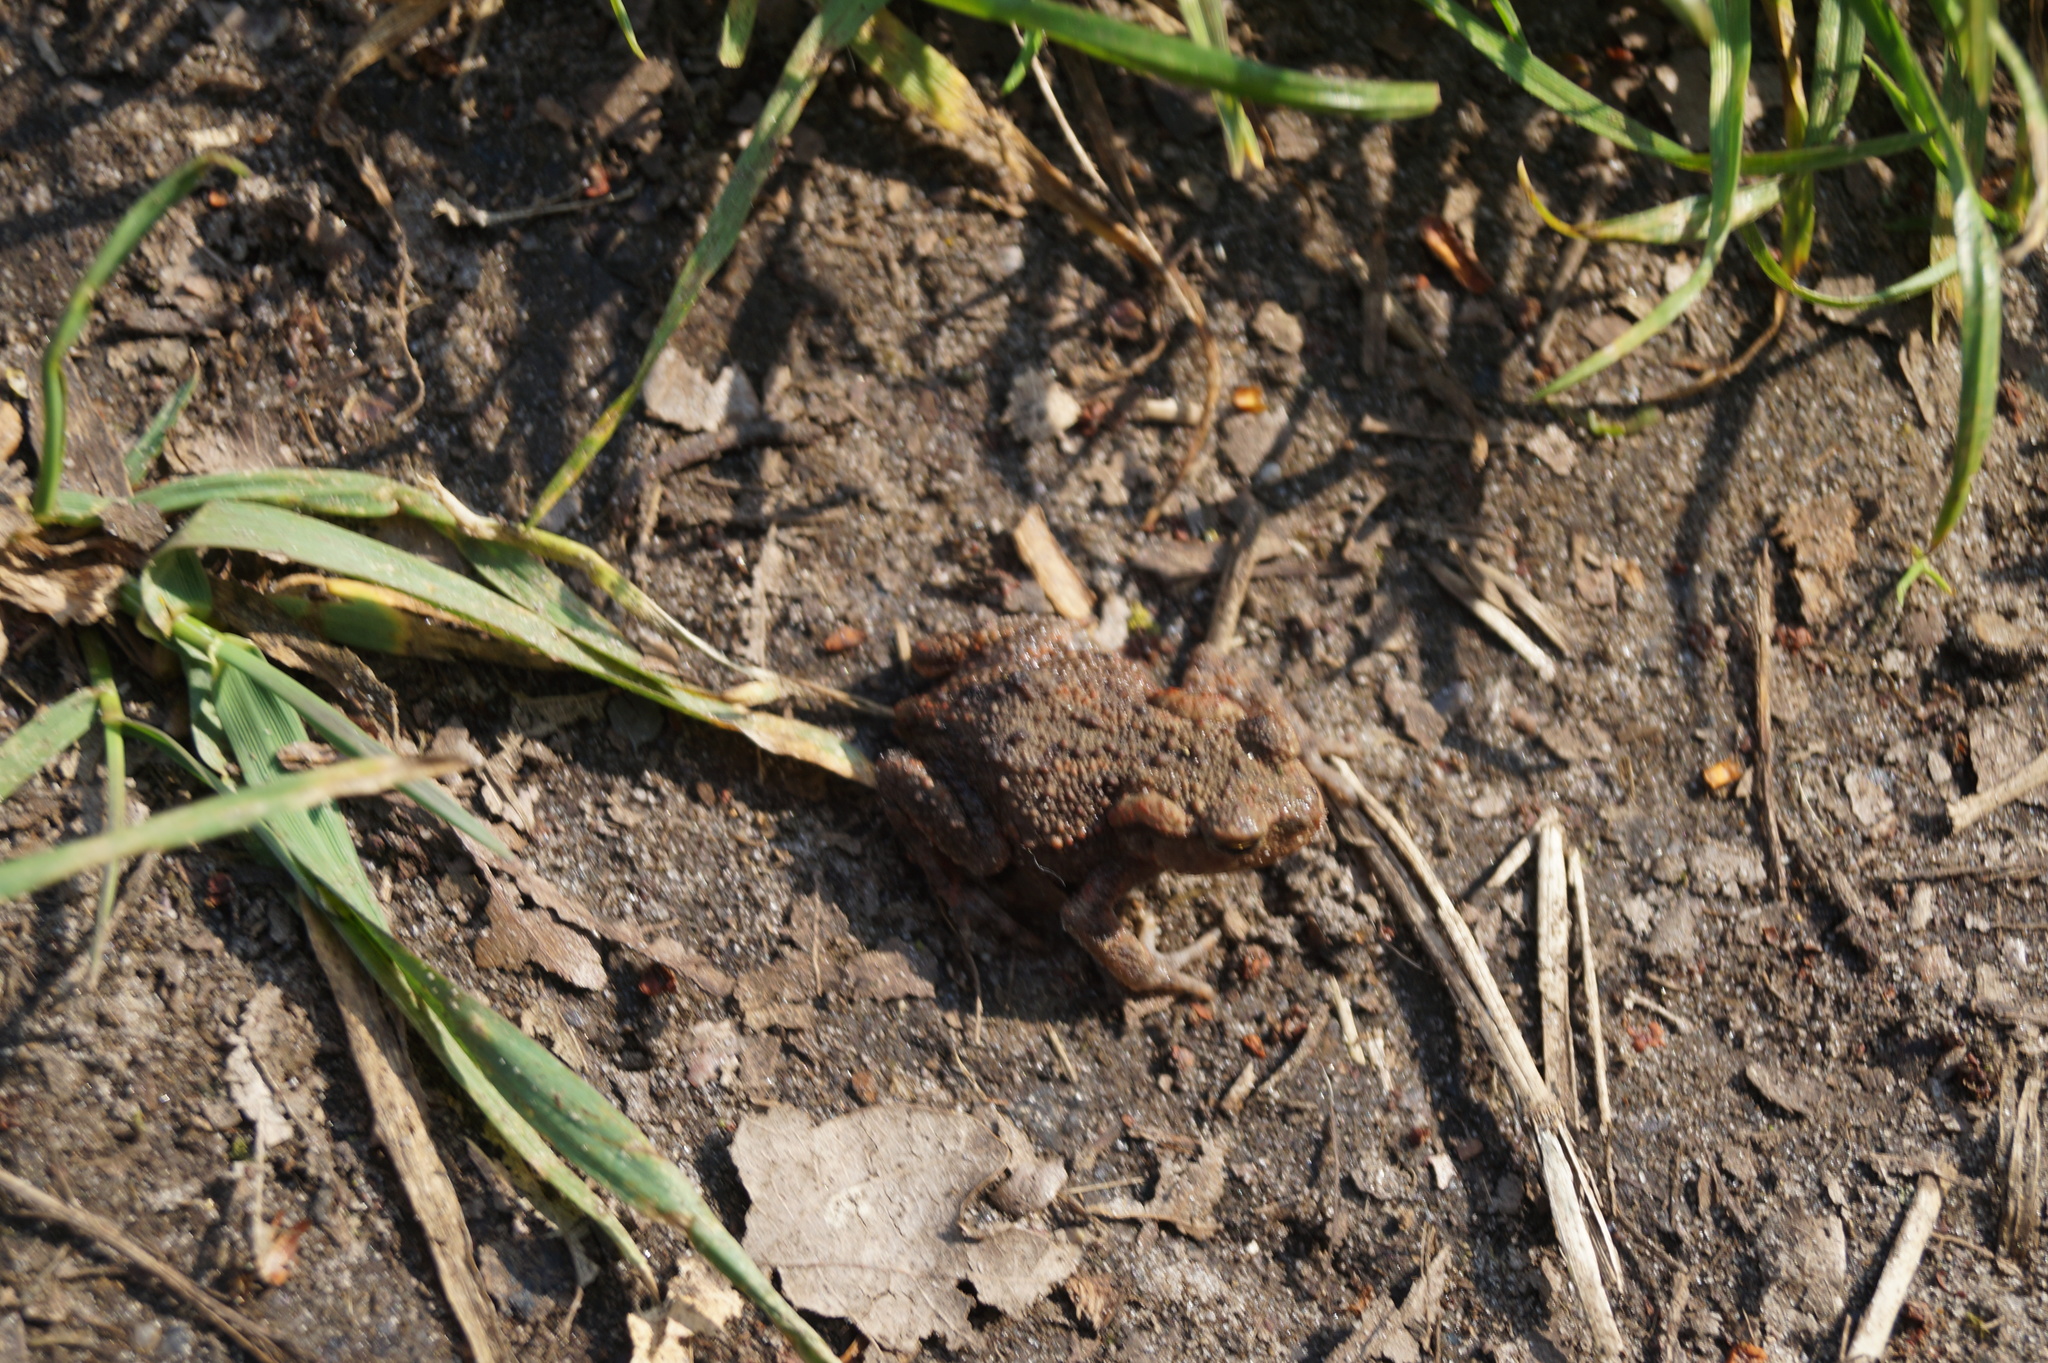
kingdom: Animalia
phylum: Chordata
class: Amphibia
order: Anura
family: Bufonidae
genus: Bufo
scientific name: Bufo bufo
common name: Common toad
